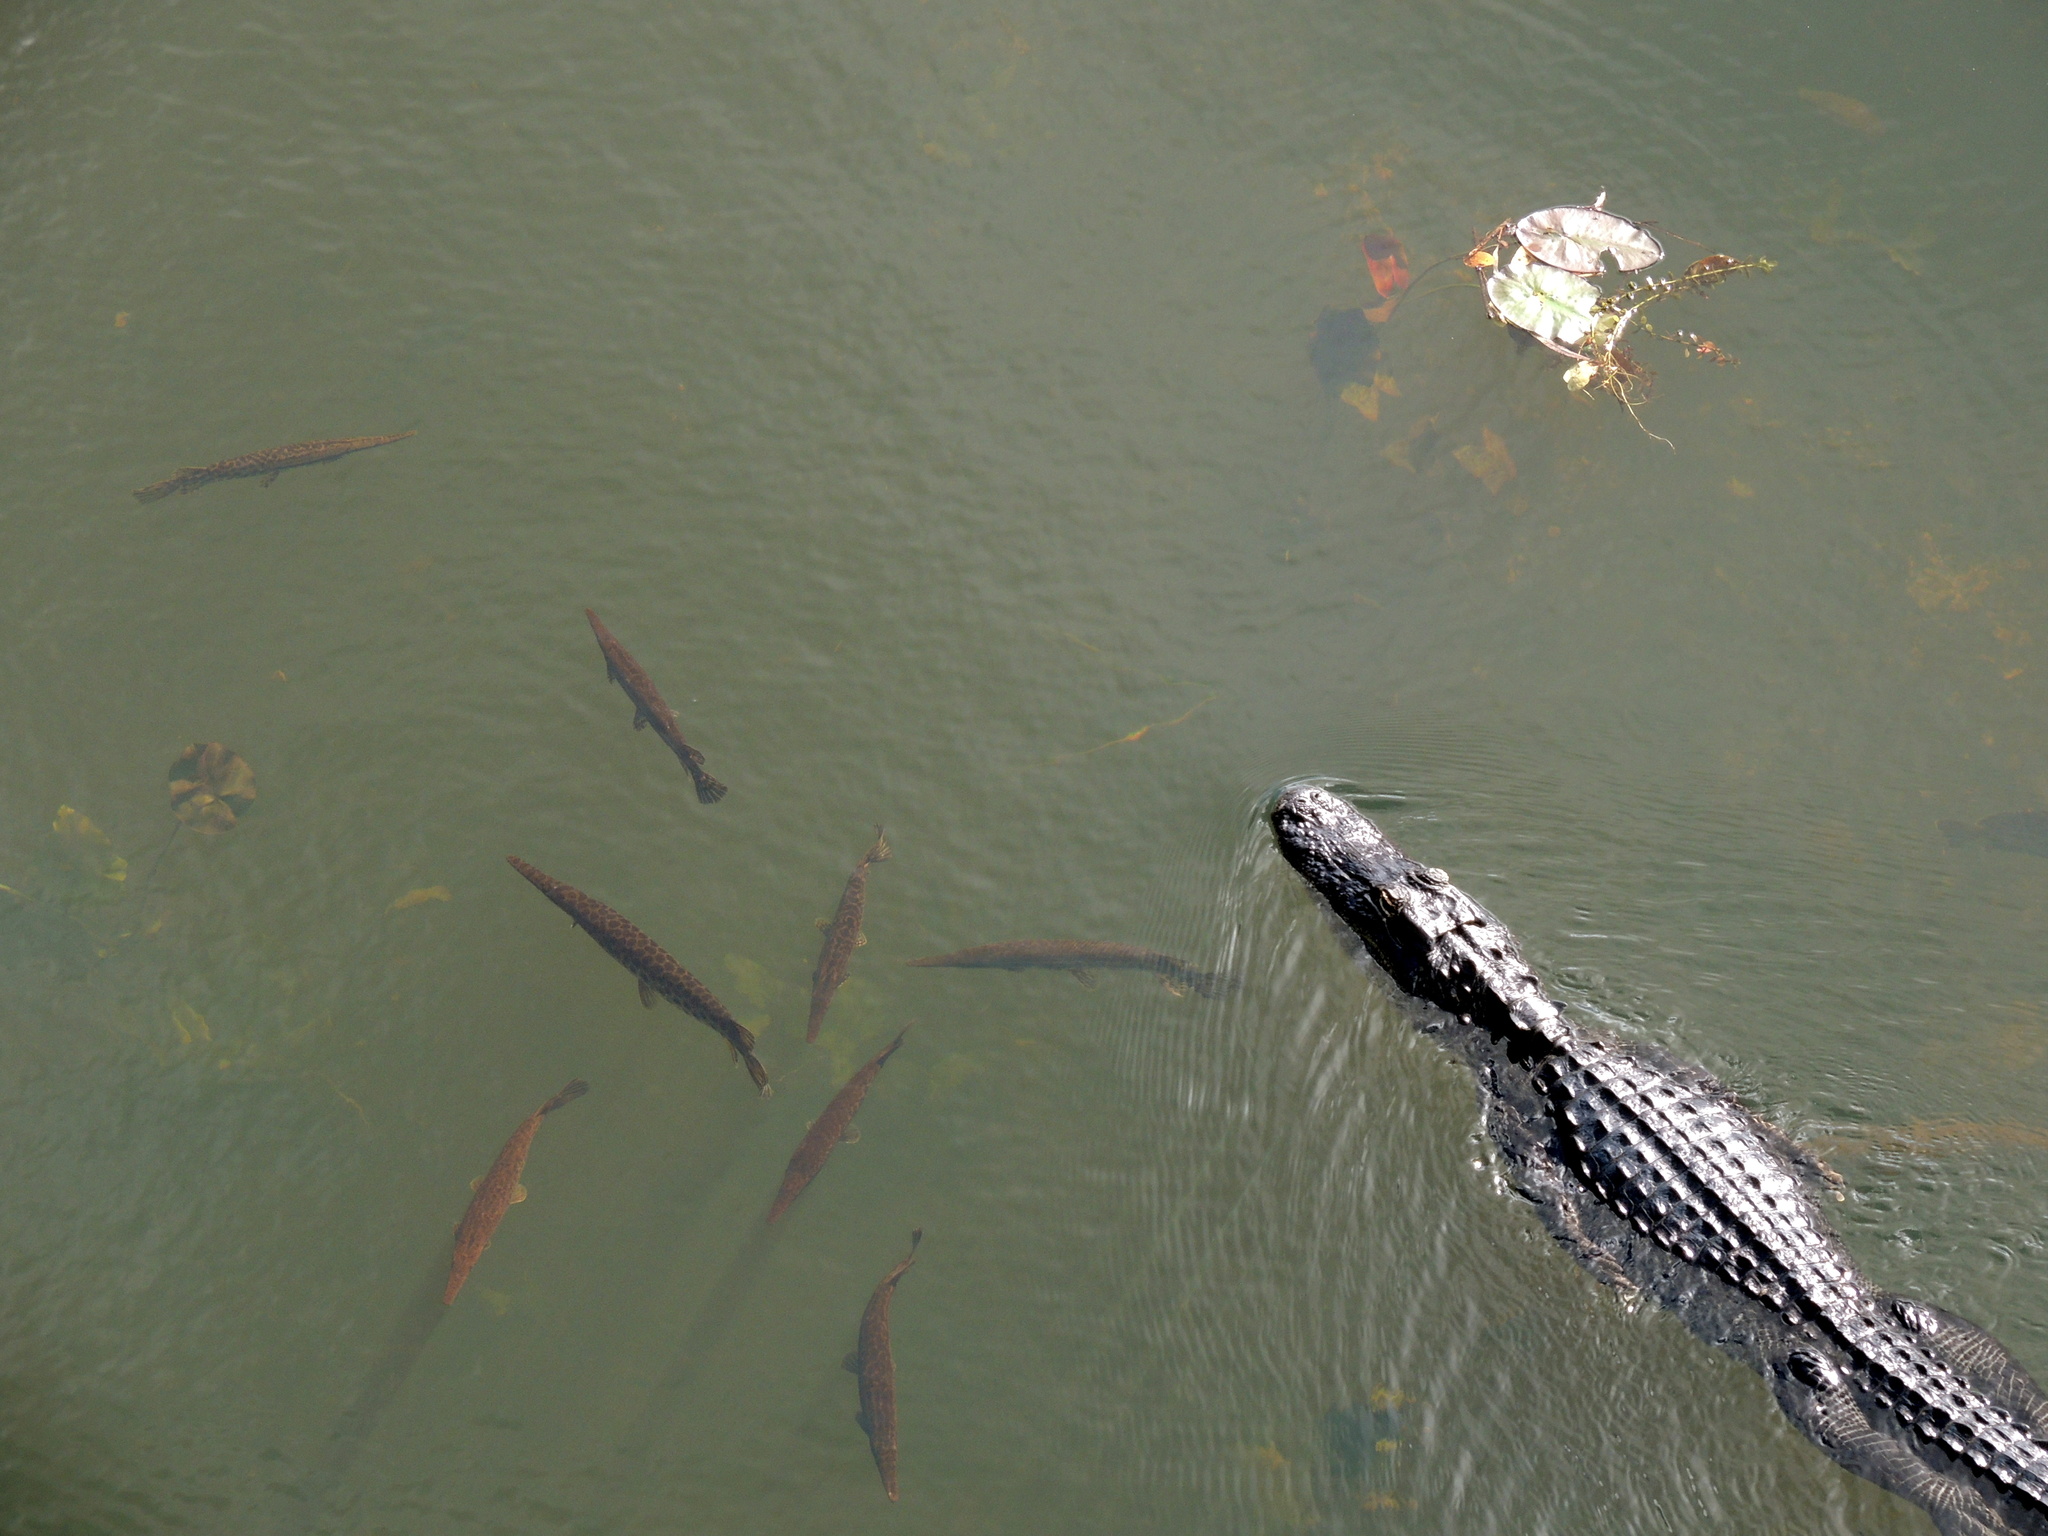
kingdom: Animalia
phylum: Chordata
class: Crocodylia
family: Alligatoridae
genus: Alligator
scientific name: Alligator mississippiensis
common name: American alligator
